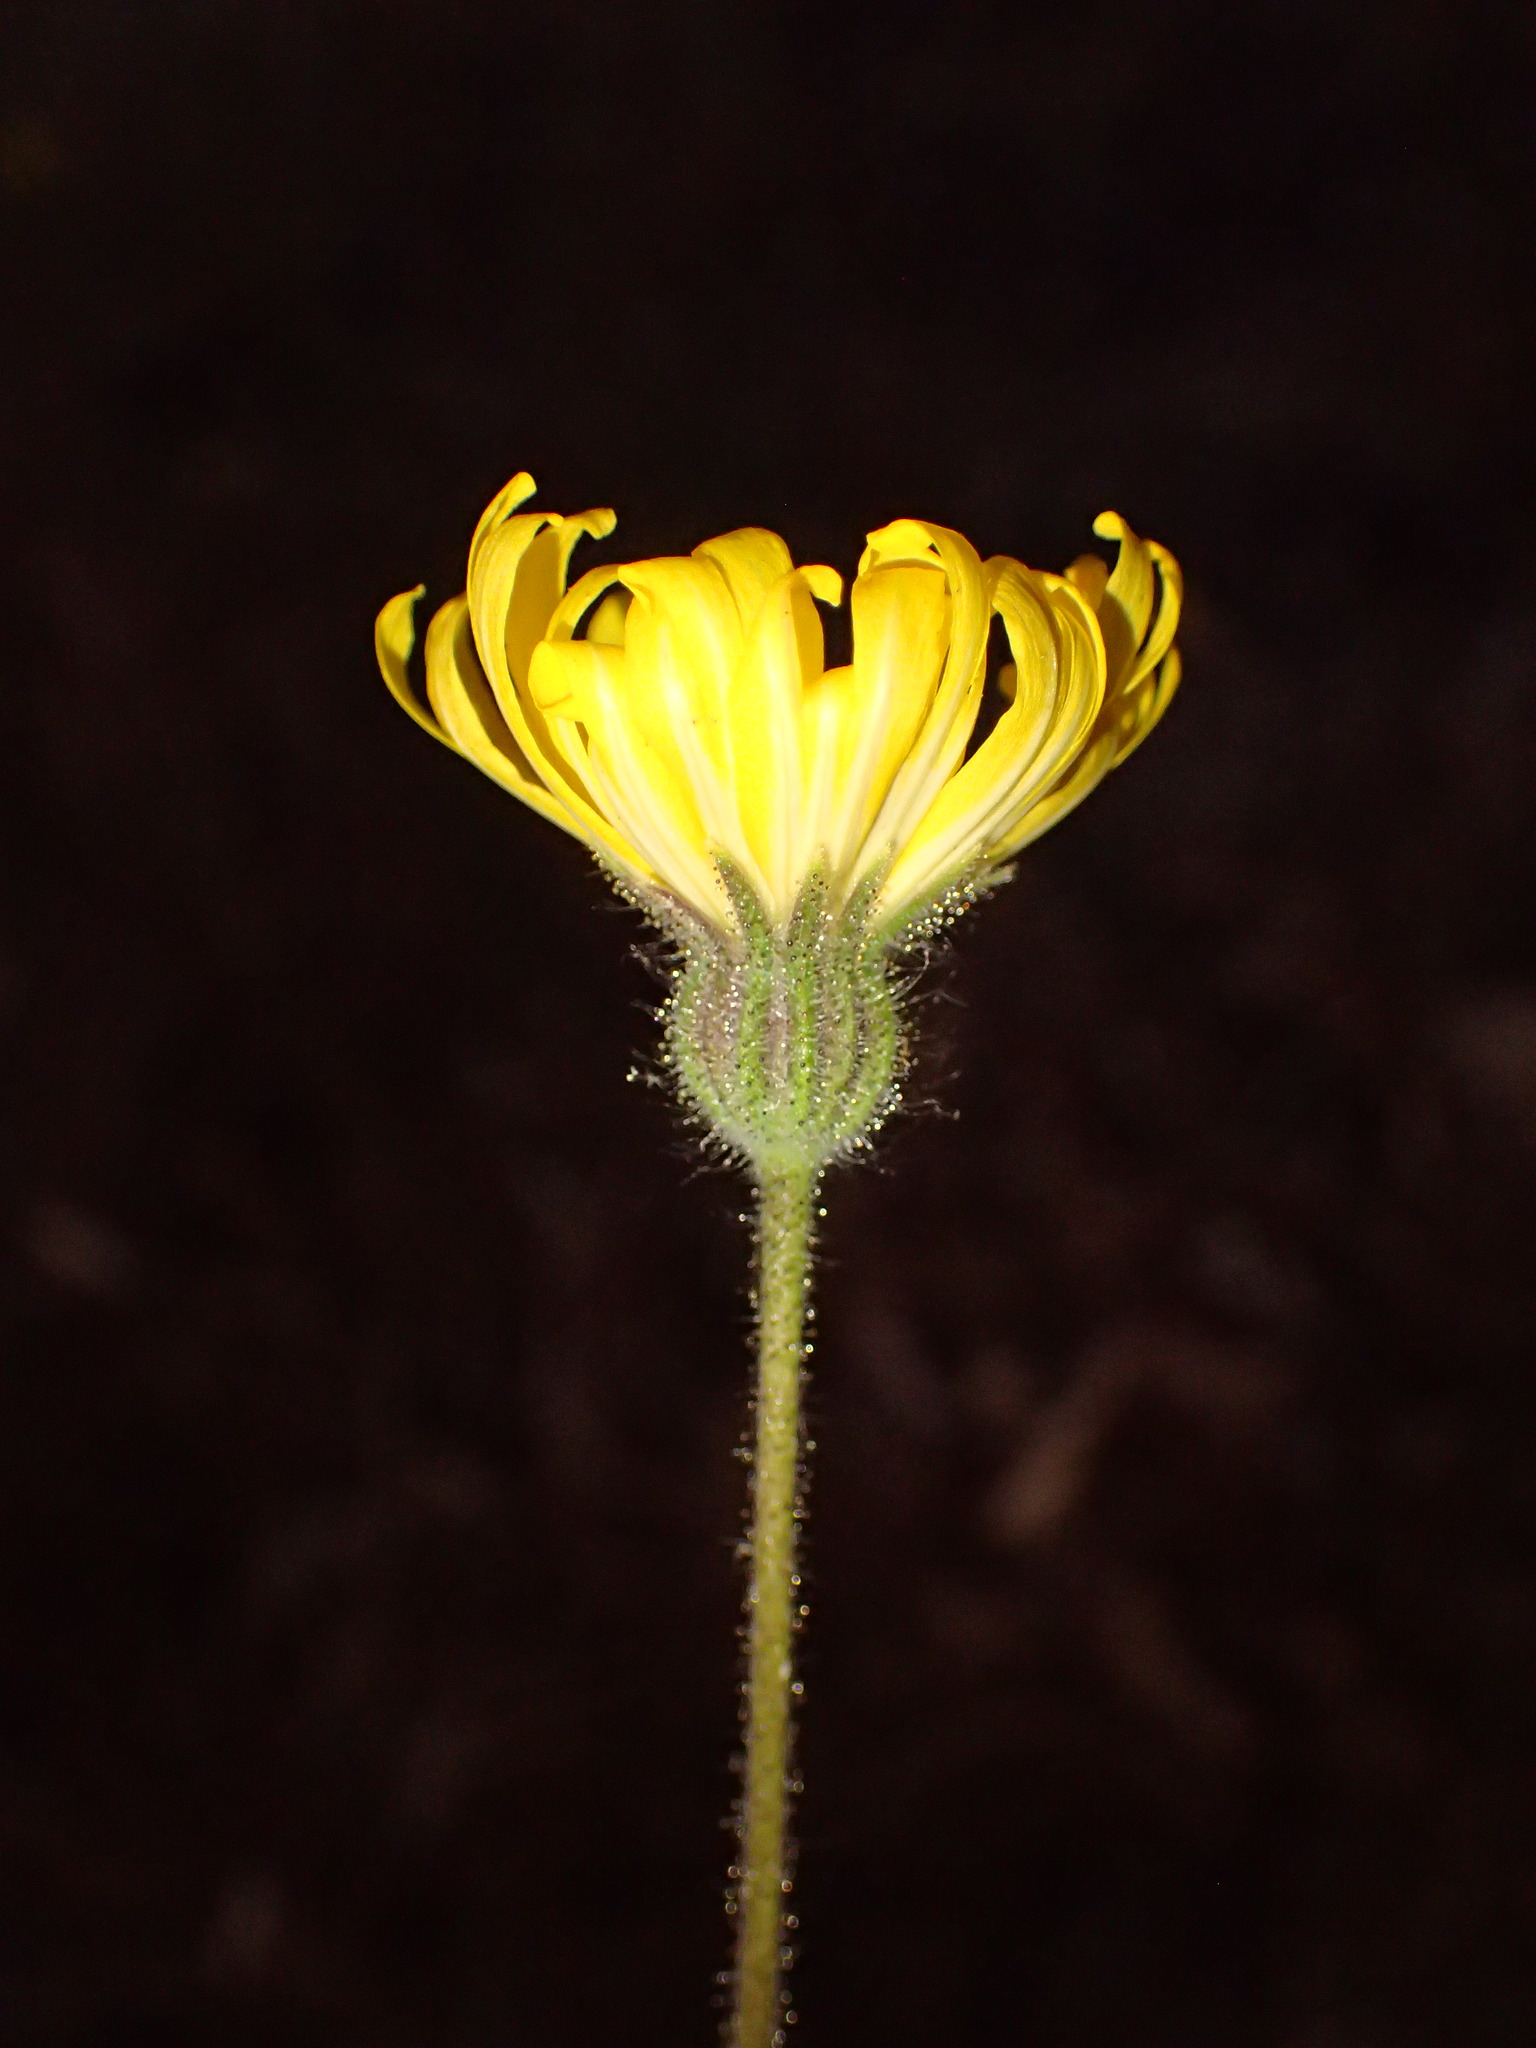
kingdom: Plantae
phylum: Tracheophyta
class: Magnoliopsida
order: Asterales
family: Asteraceae
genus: Madia
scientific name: Madia elegans
